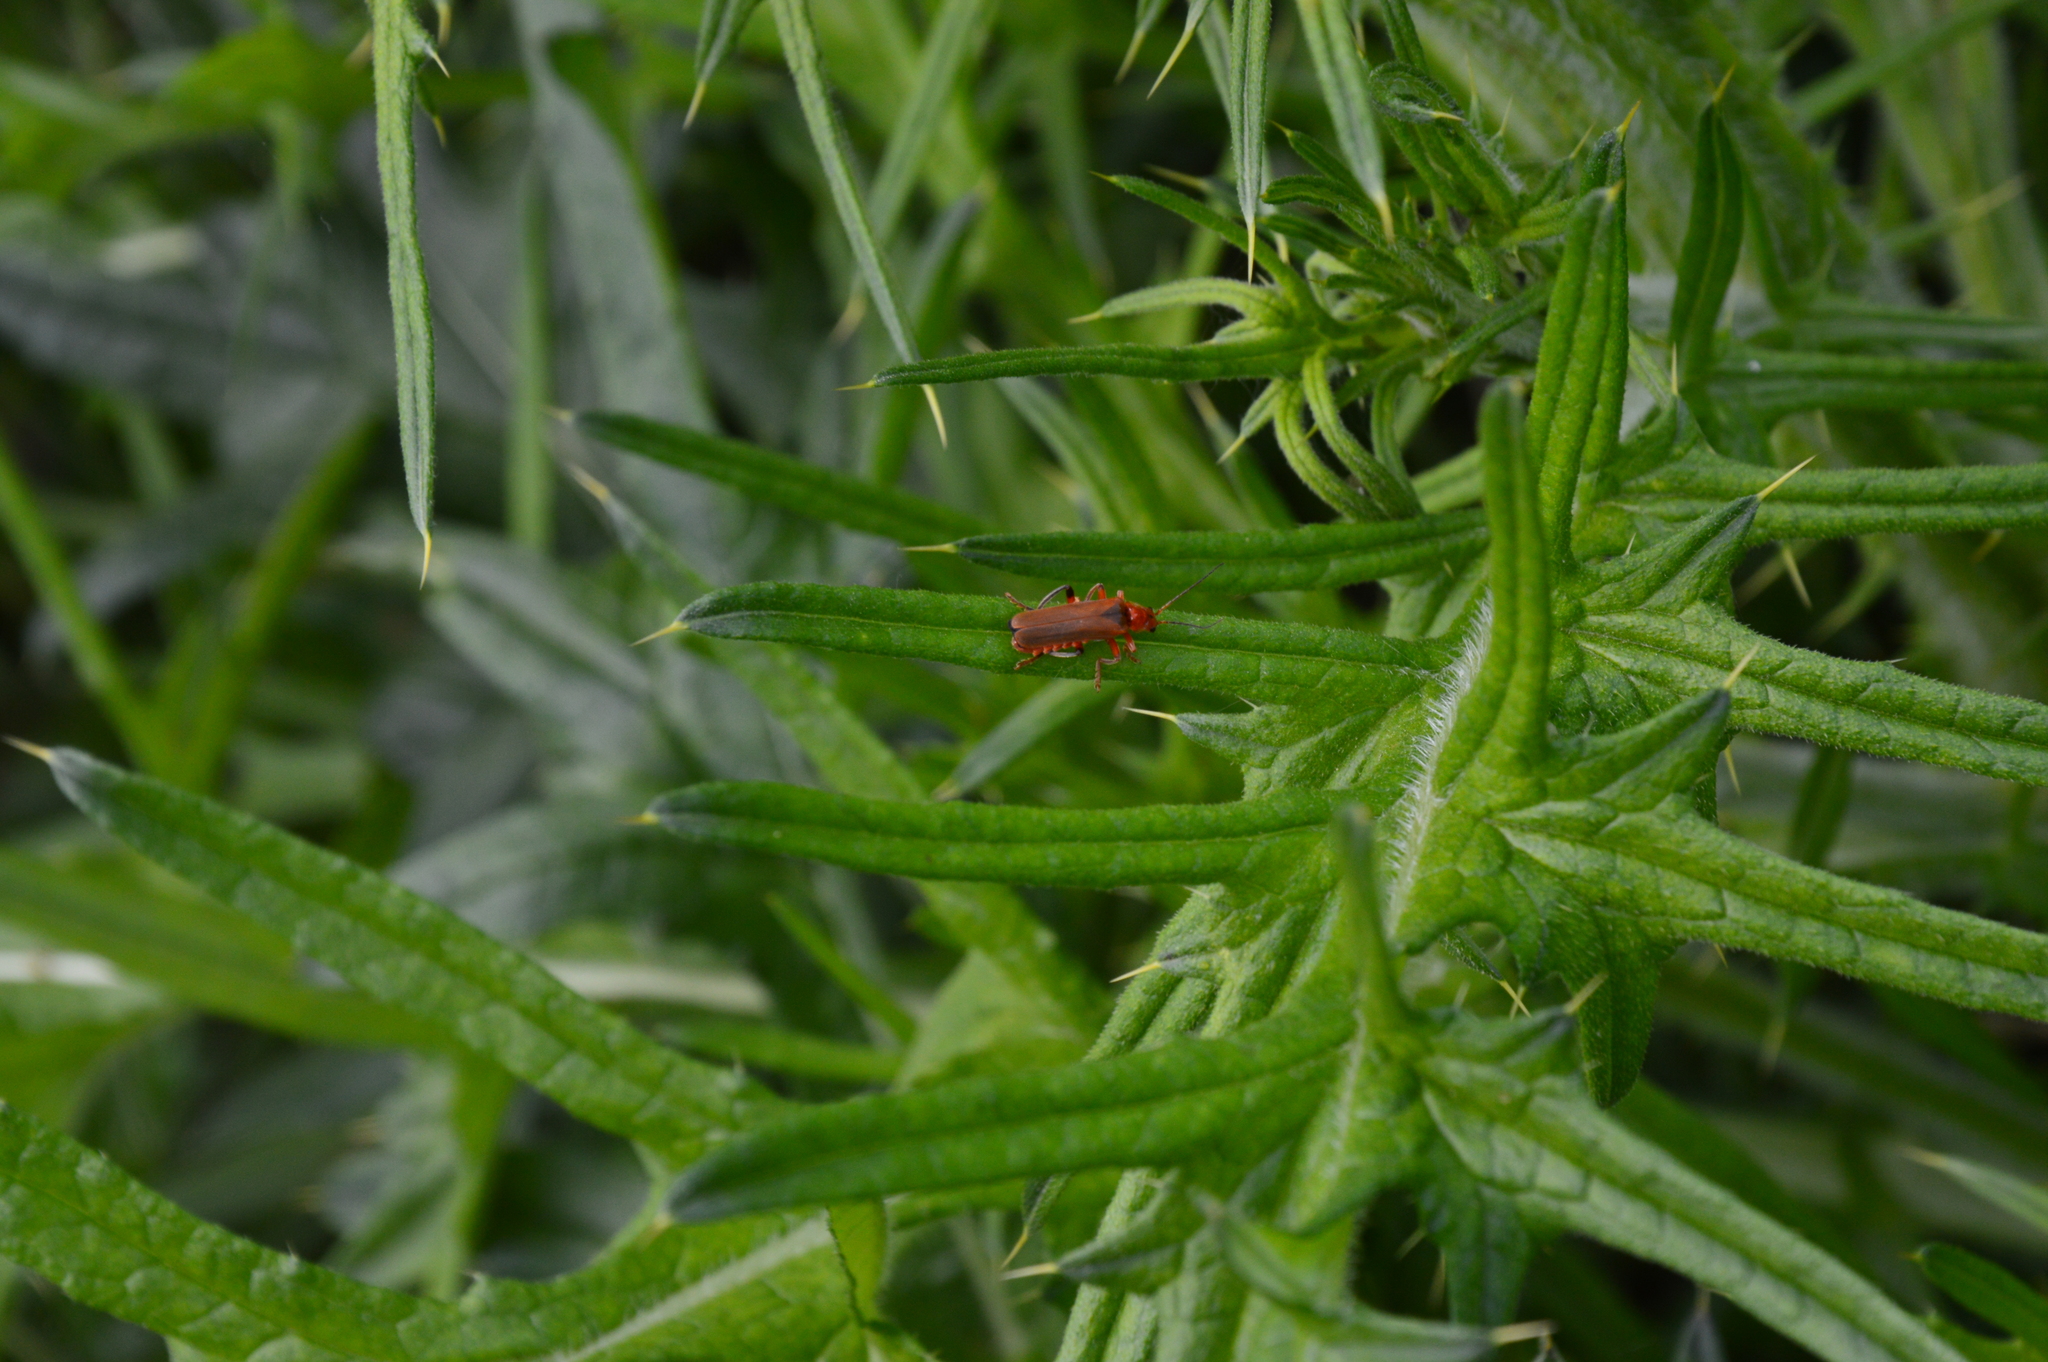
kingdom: Animalia
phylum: Arthropoda
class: Insecta
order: Coleoptera
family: Cantharidae
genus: Cantharis
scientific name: Cantharis livida
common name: Livid soldier beetle
